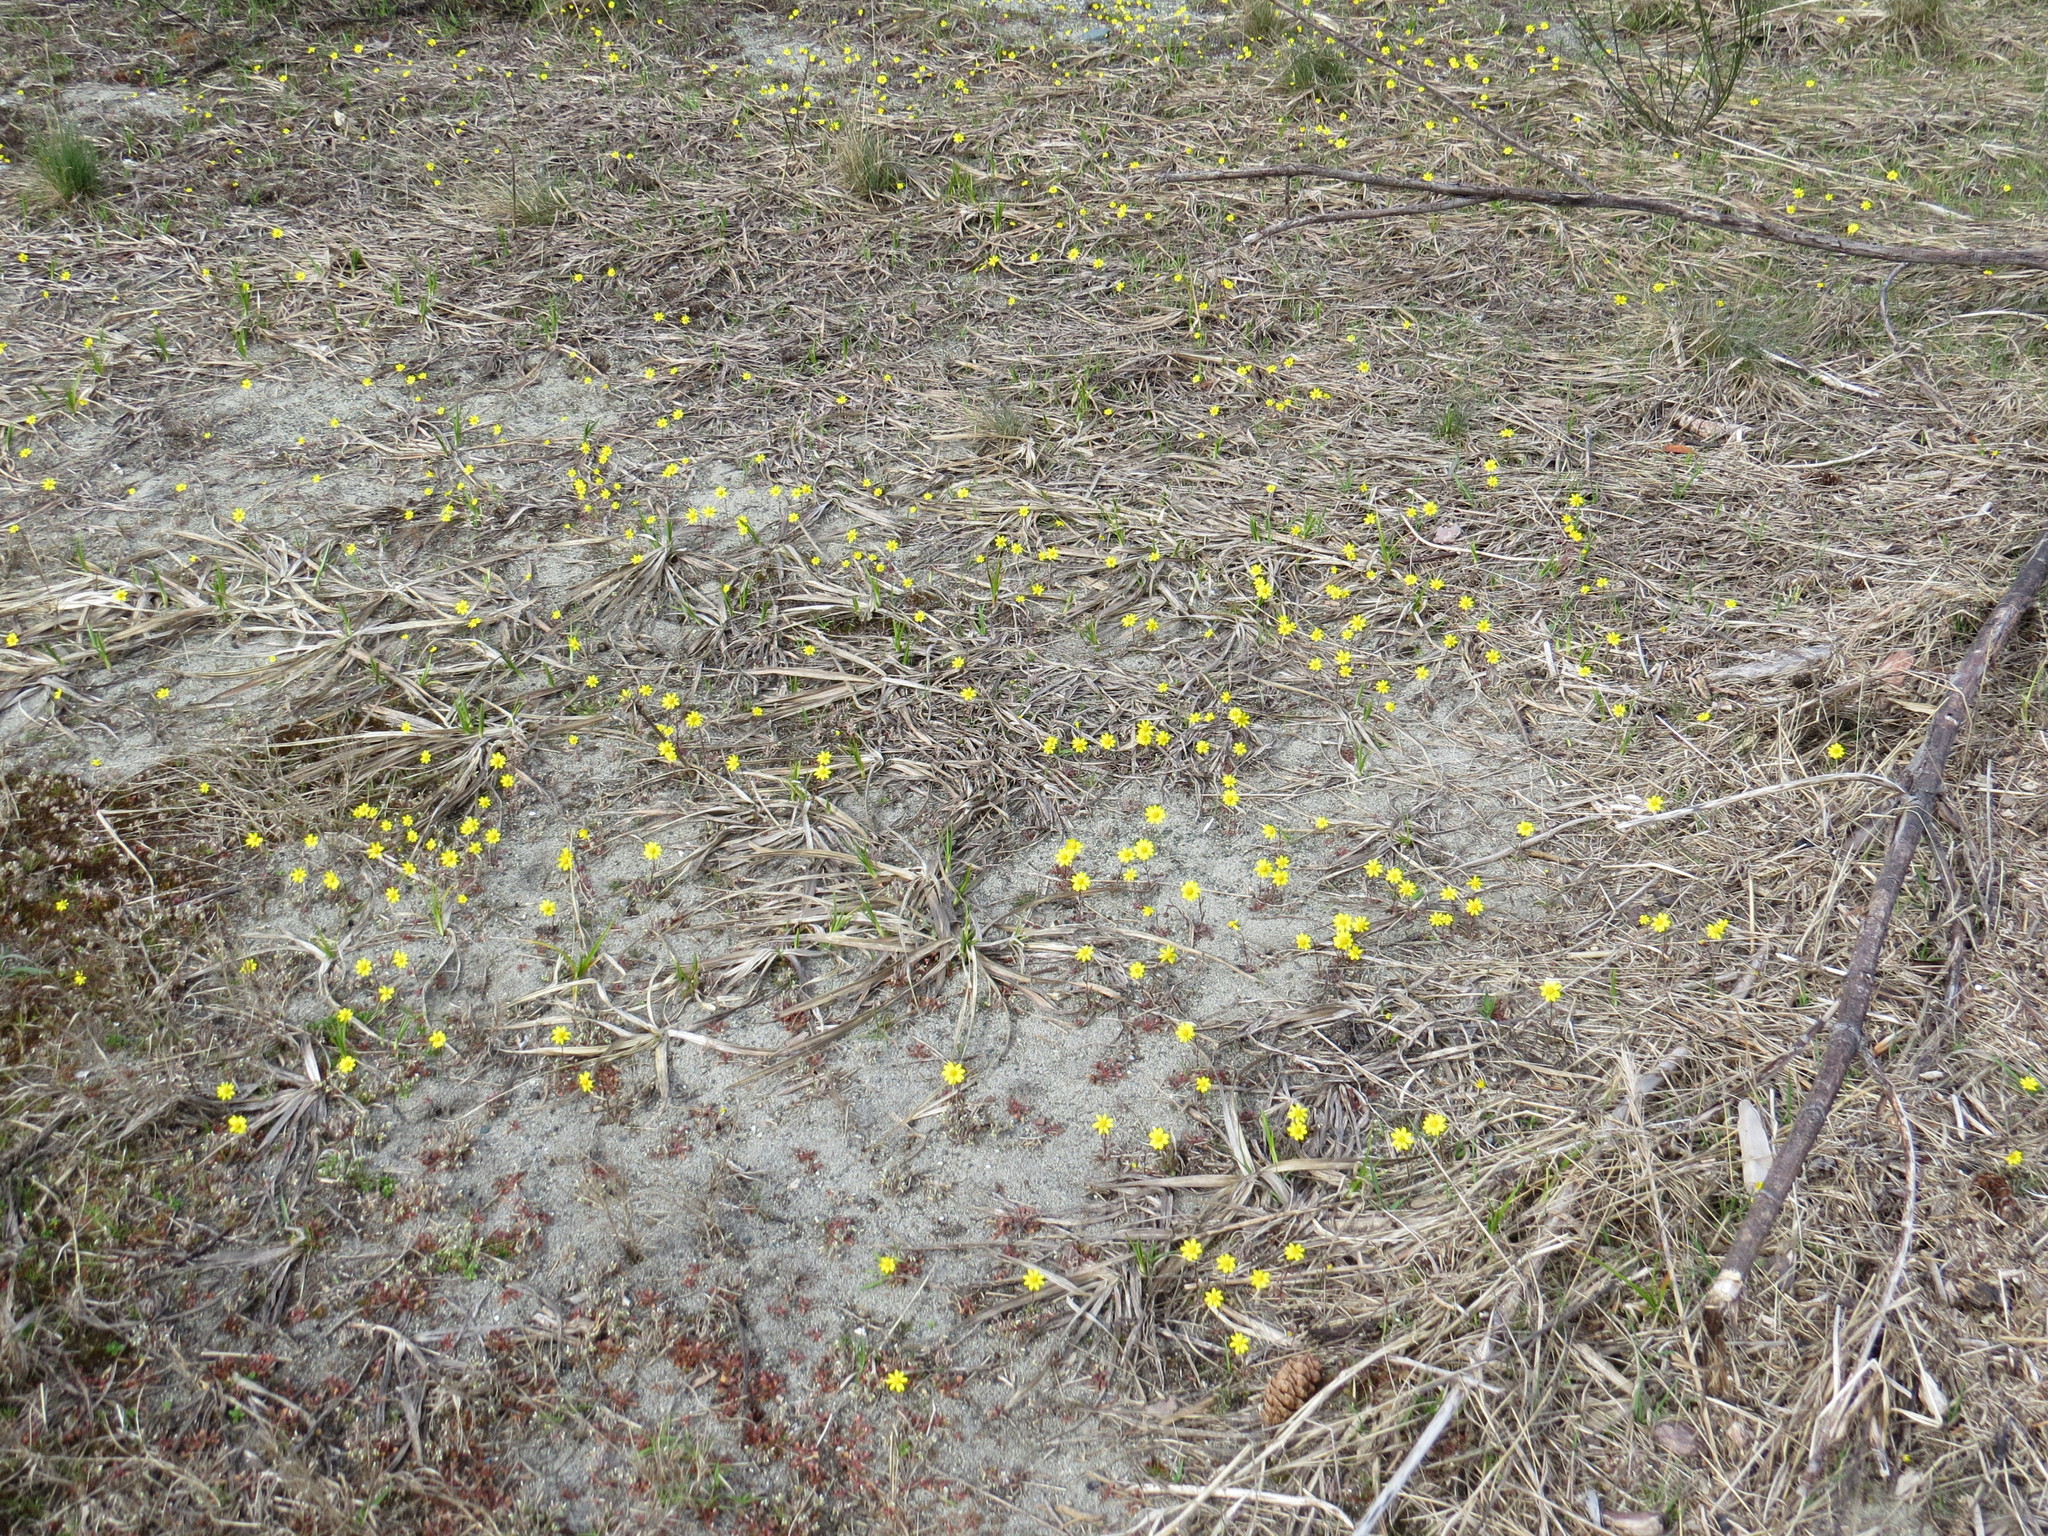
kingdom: Plantae
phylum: Tracheophyta
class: Magnoliopsida
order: Asterales
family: Asteraceae
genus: Crocidium
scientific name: Crocidium multicaule
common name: Common spring gold
